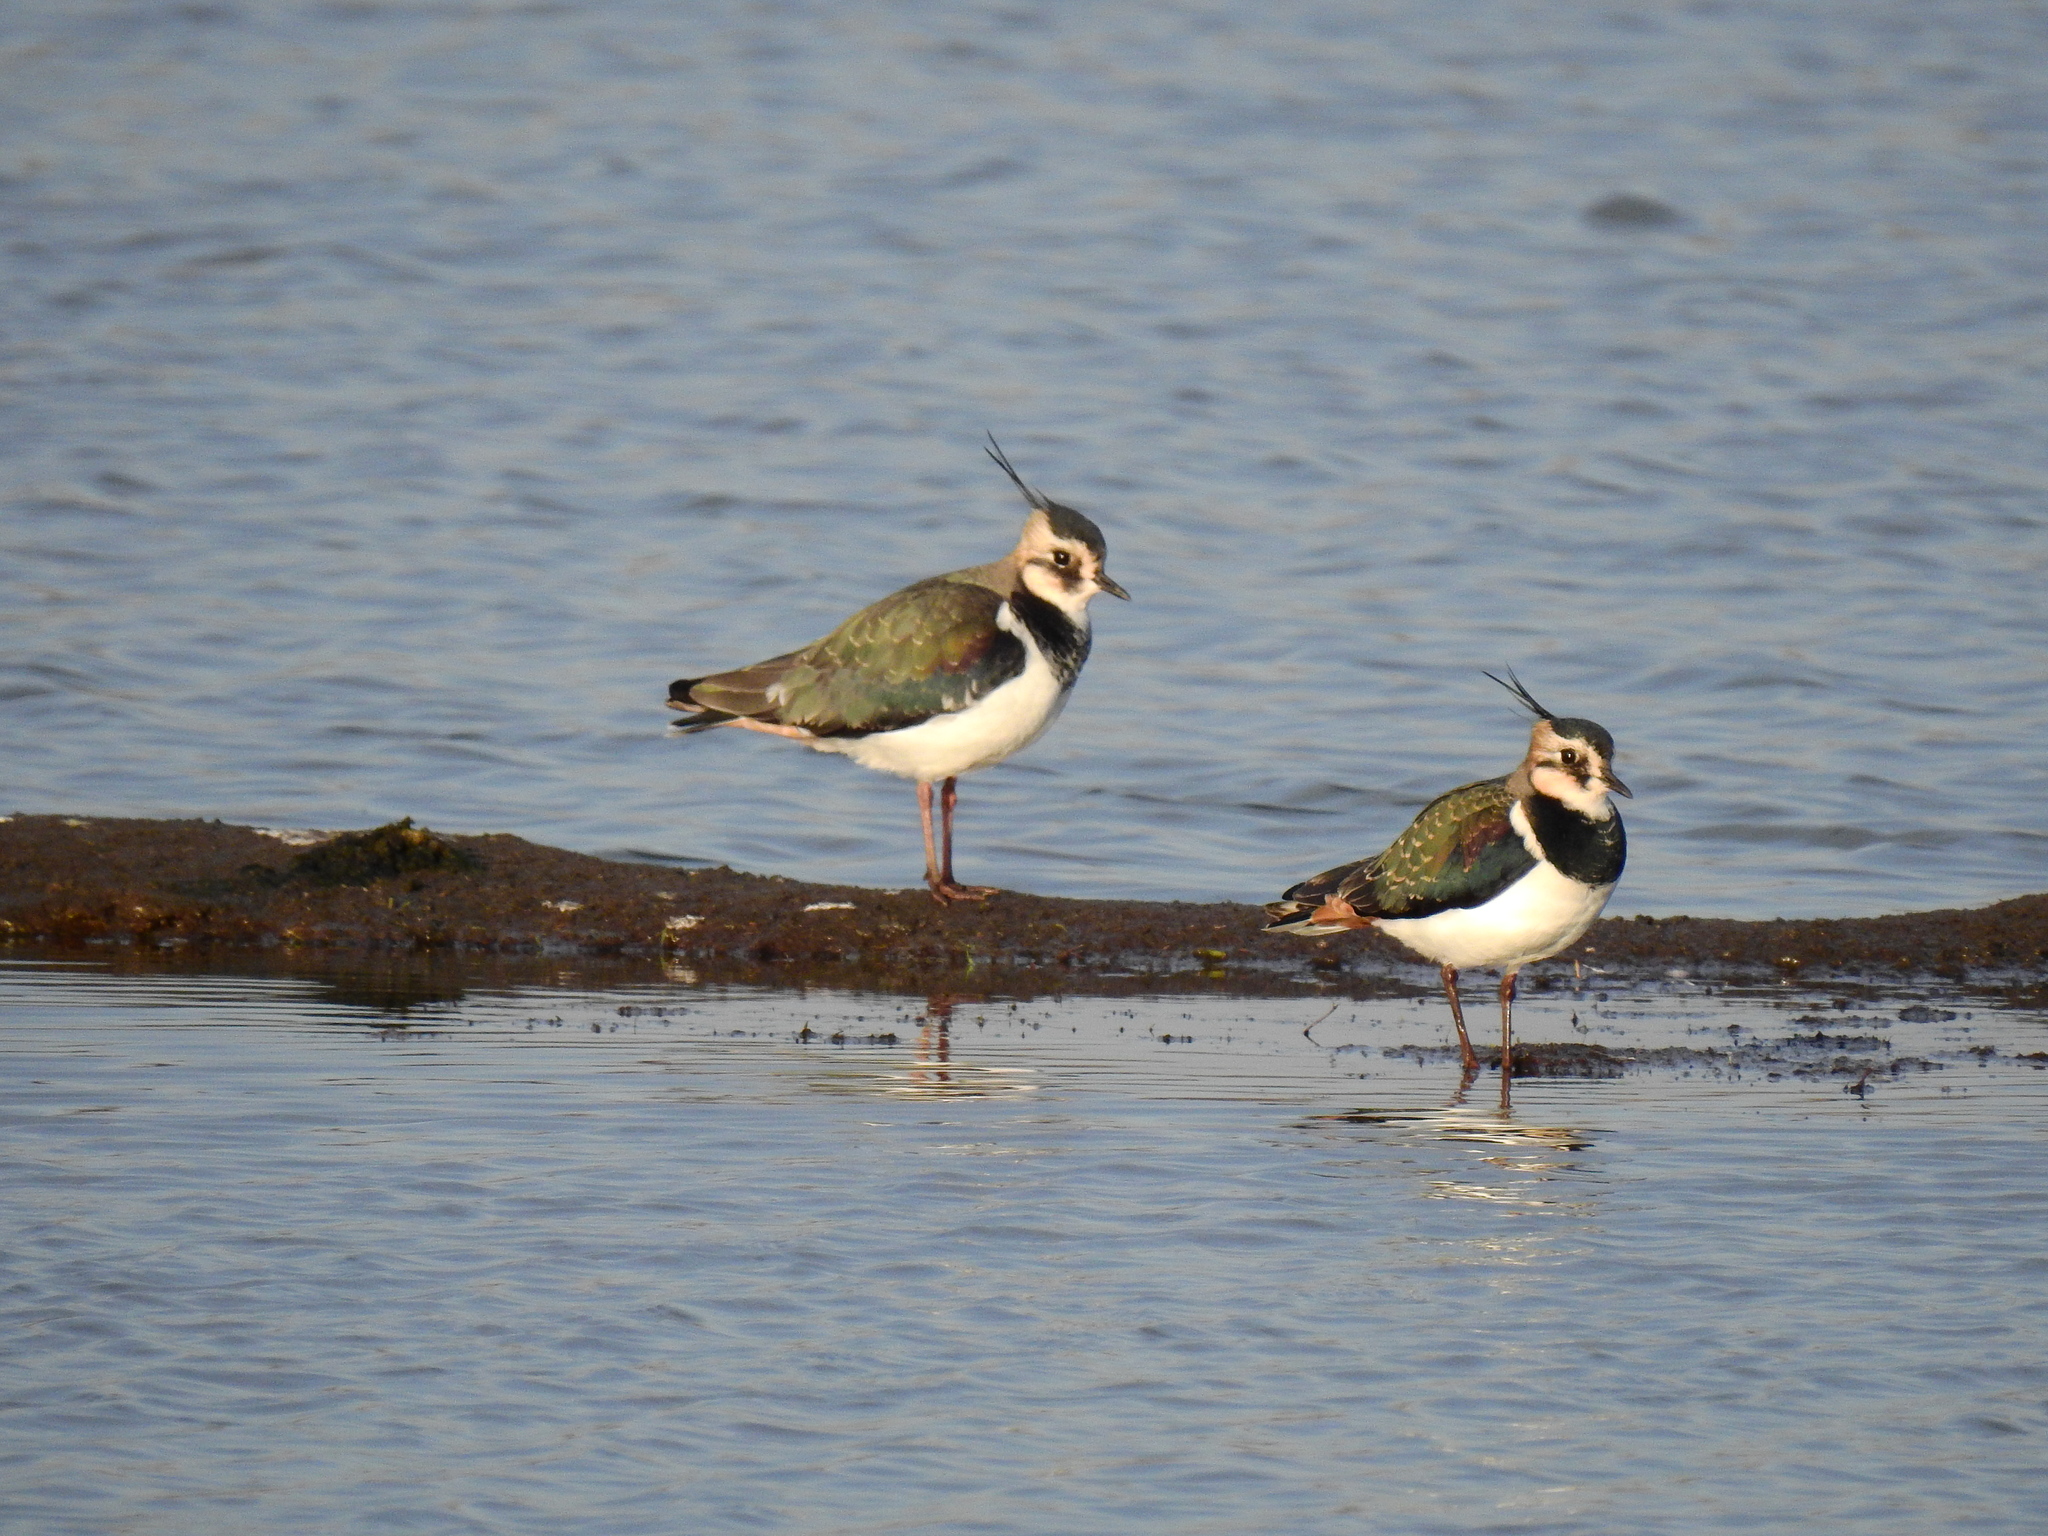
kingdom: Animalia
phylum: Chordata
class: Aves
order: Charadriiformes
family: Charadriidae
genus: Vanellus
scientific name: Vanellus vanellus
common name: Northern lapwing
